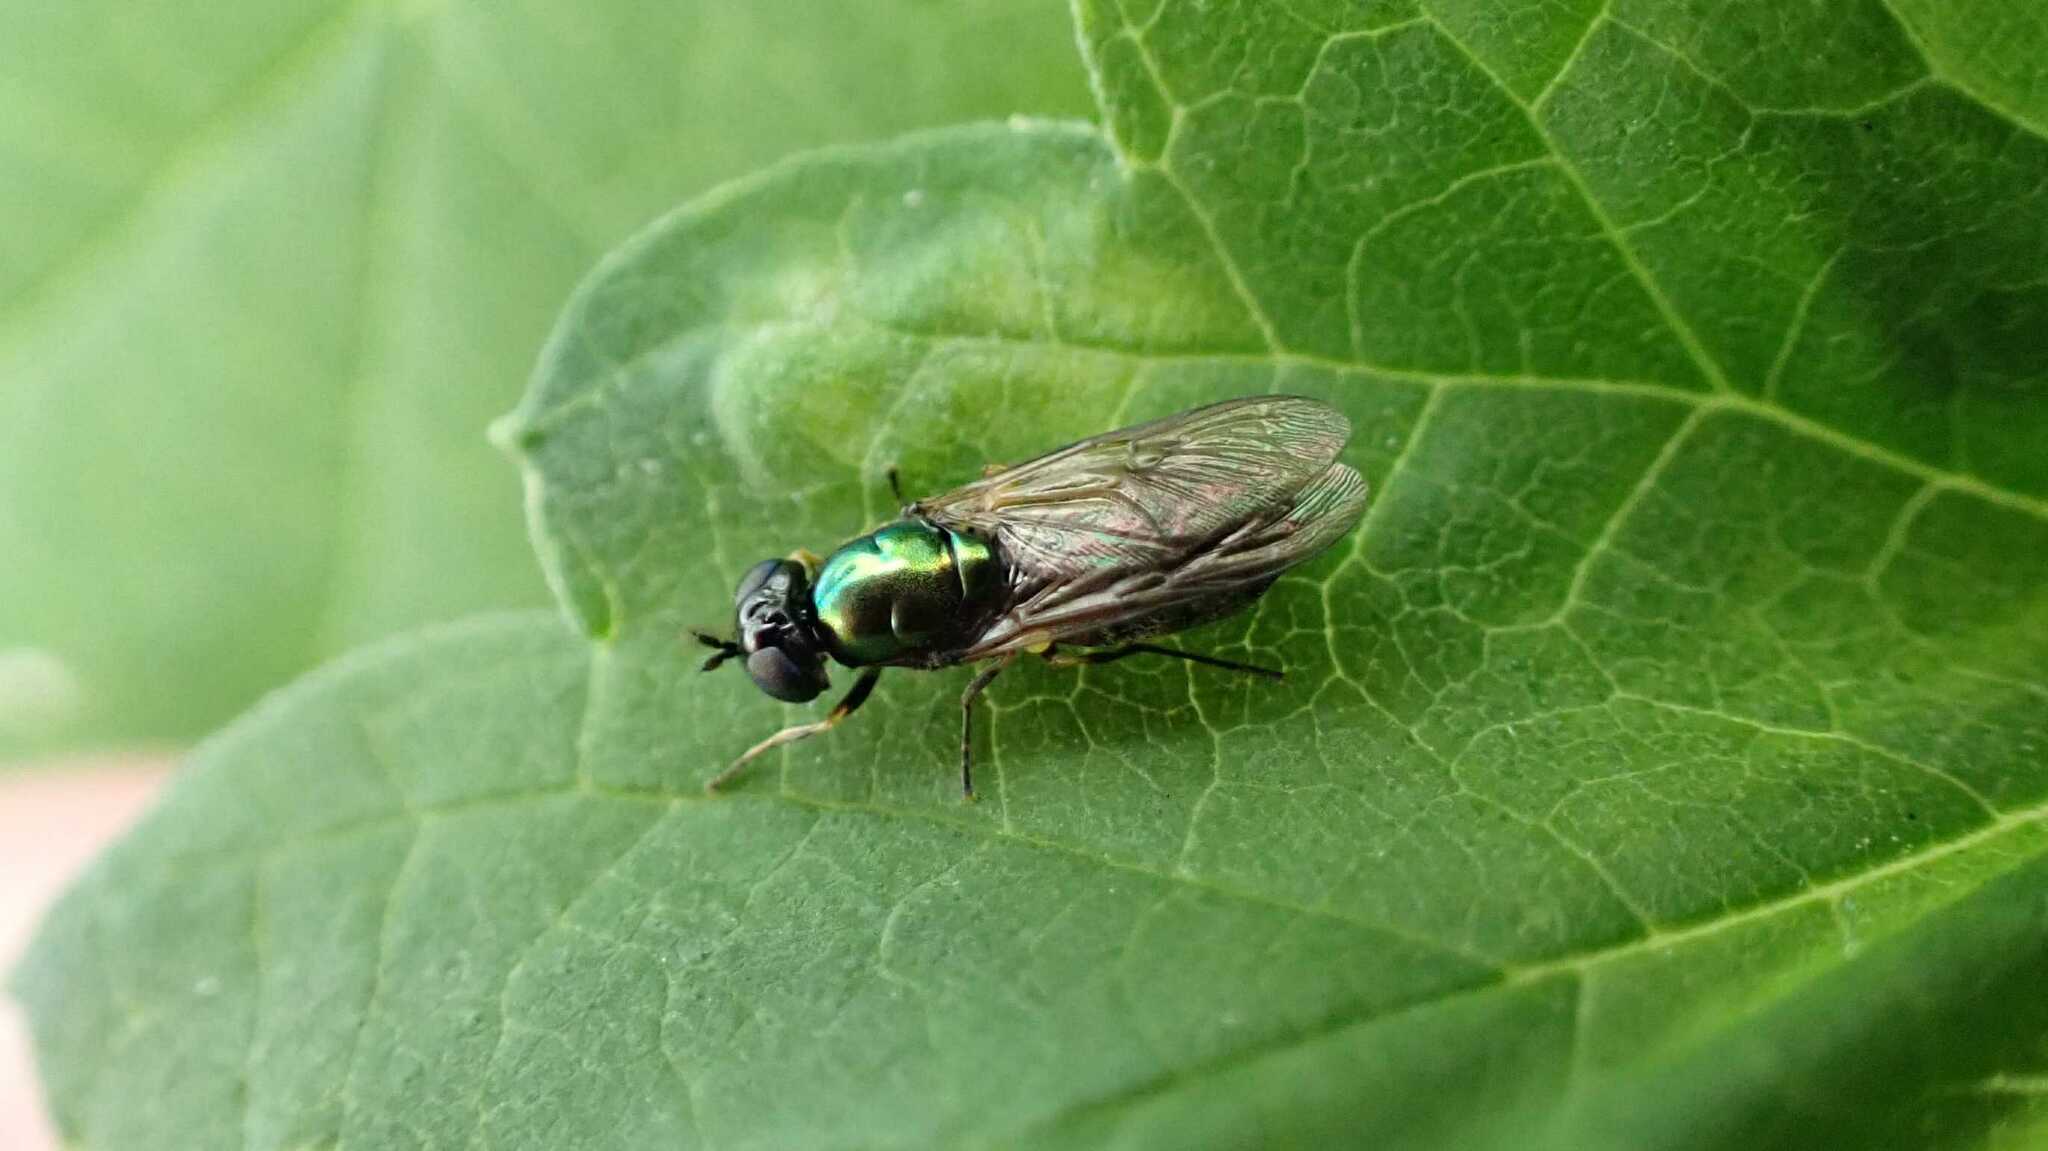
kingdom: Animalia
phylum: Arthropoda
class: Insecta
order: Diptera
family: Stratiomyidae
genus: Chloromyia
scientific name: Chloromyia formosa
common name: Soldier fly
